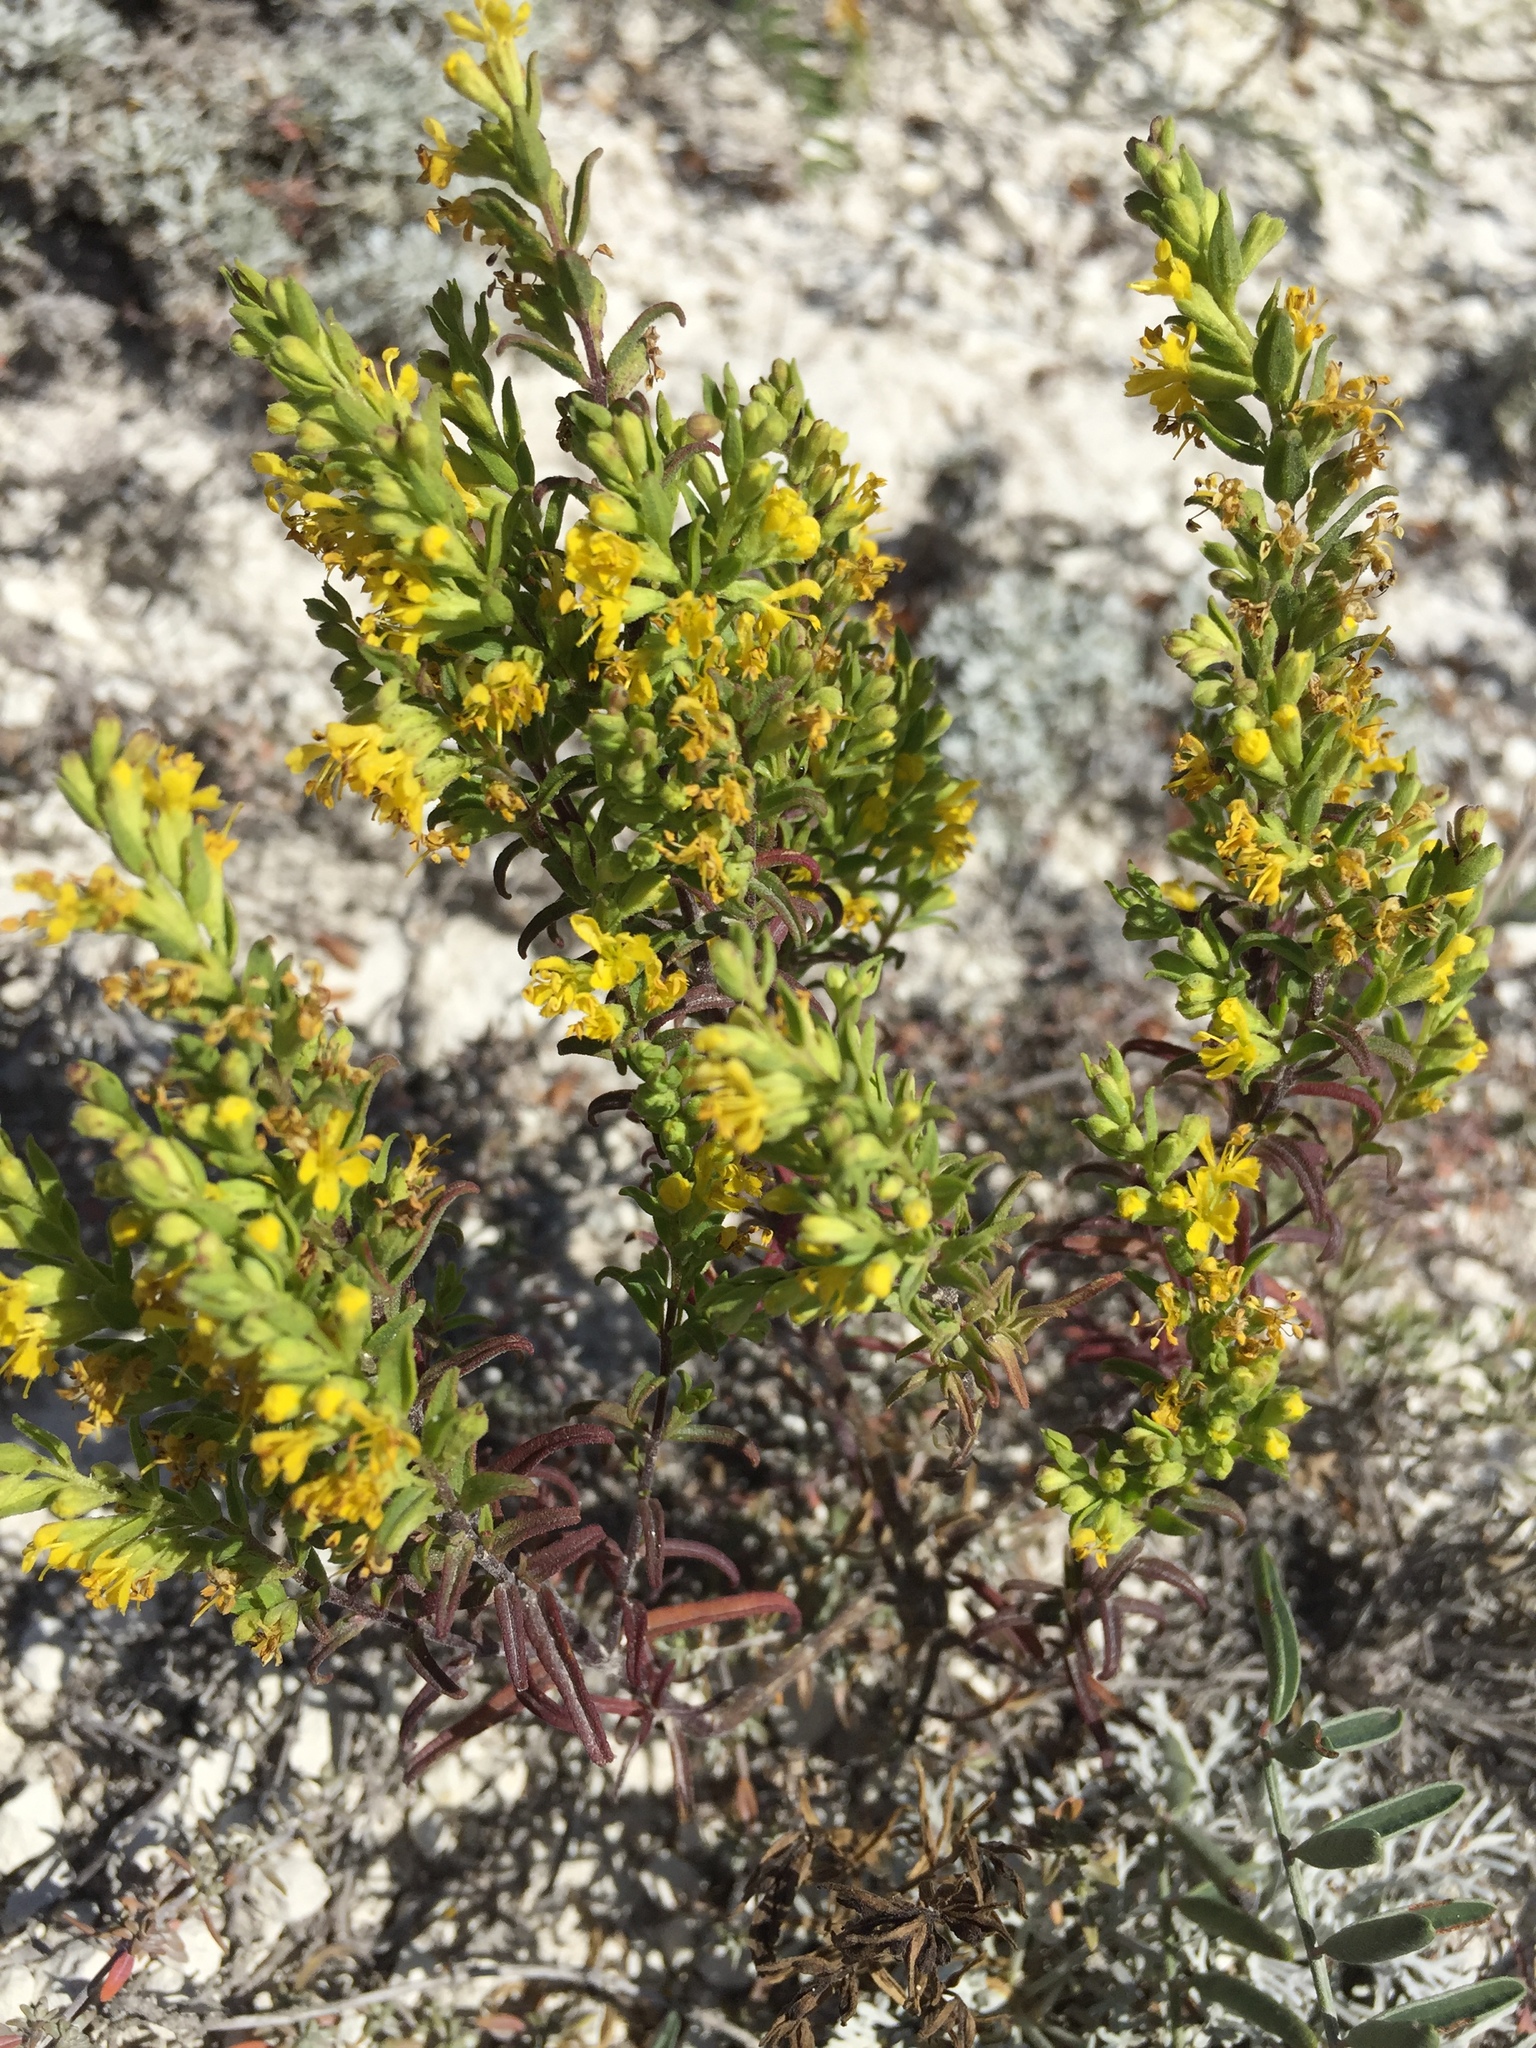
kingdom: Plantae
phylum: Tracheophyta
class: Magnoliopsida
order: Lamiales
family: Orobanchaceae
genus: Odontites
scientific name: Odontites luteus
